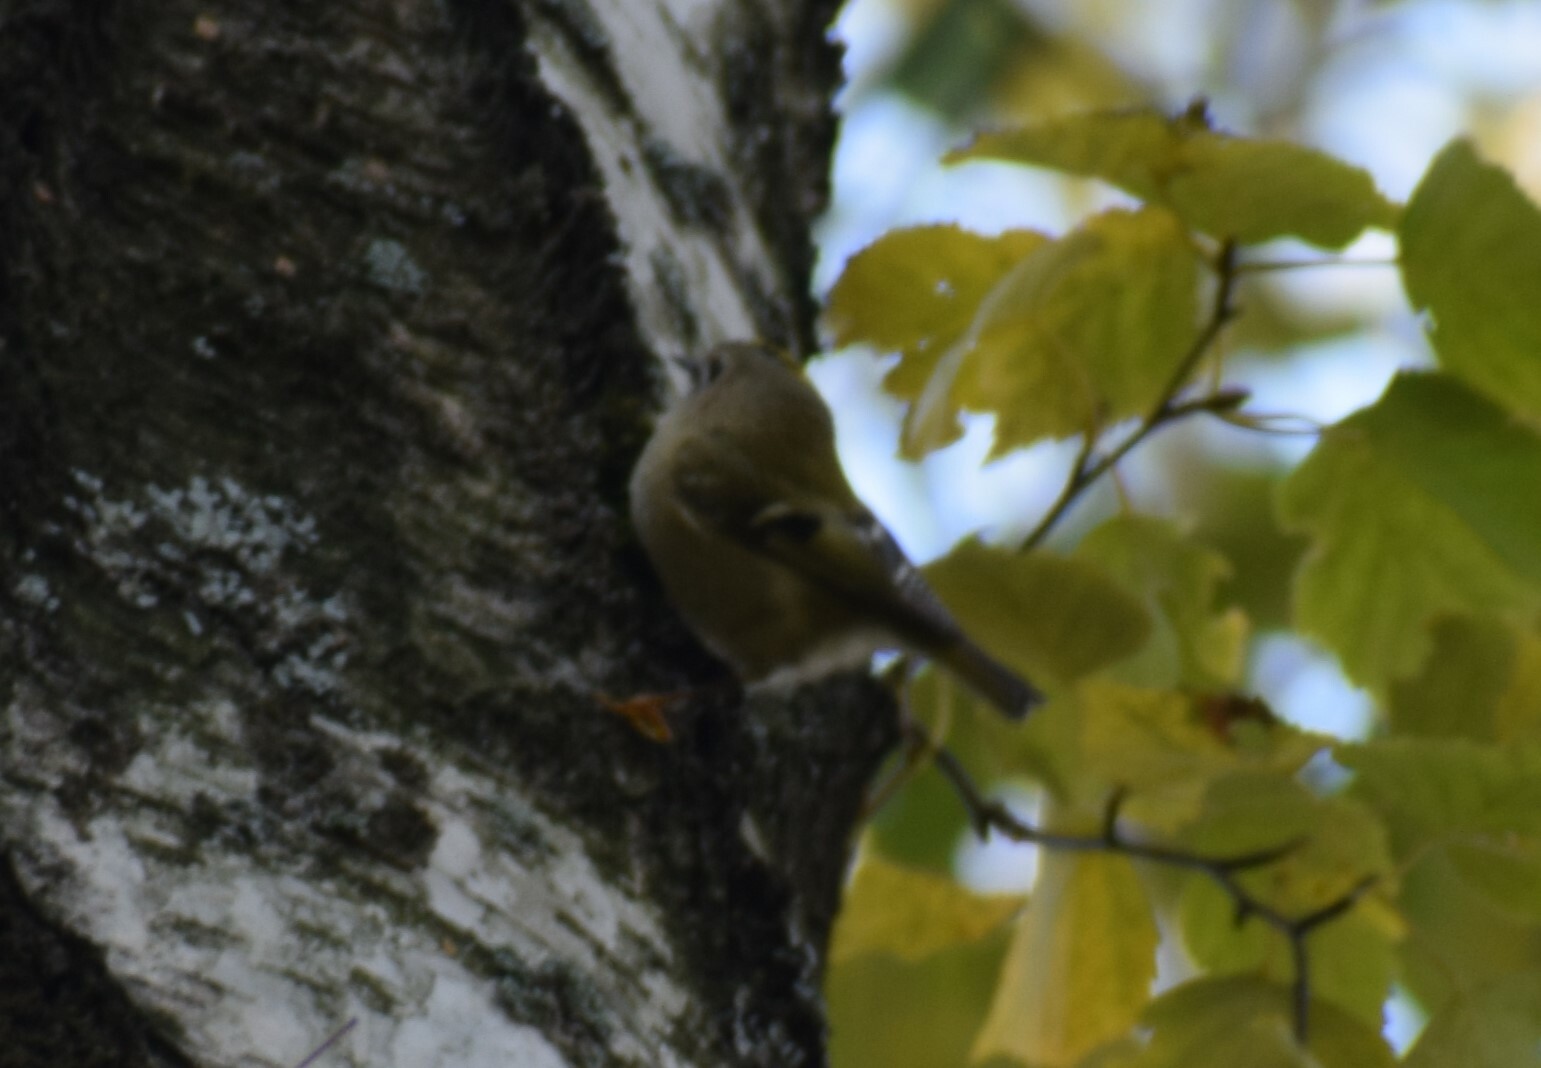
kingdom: Animalia
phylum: Chordata
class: Aves
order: Passeriformes
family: Regulidae
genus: Regulus
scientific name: Regulus regulus
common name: Goldcrest
